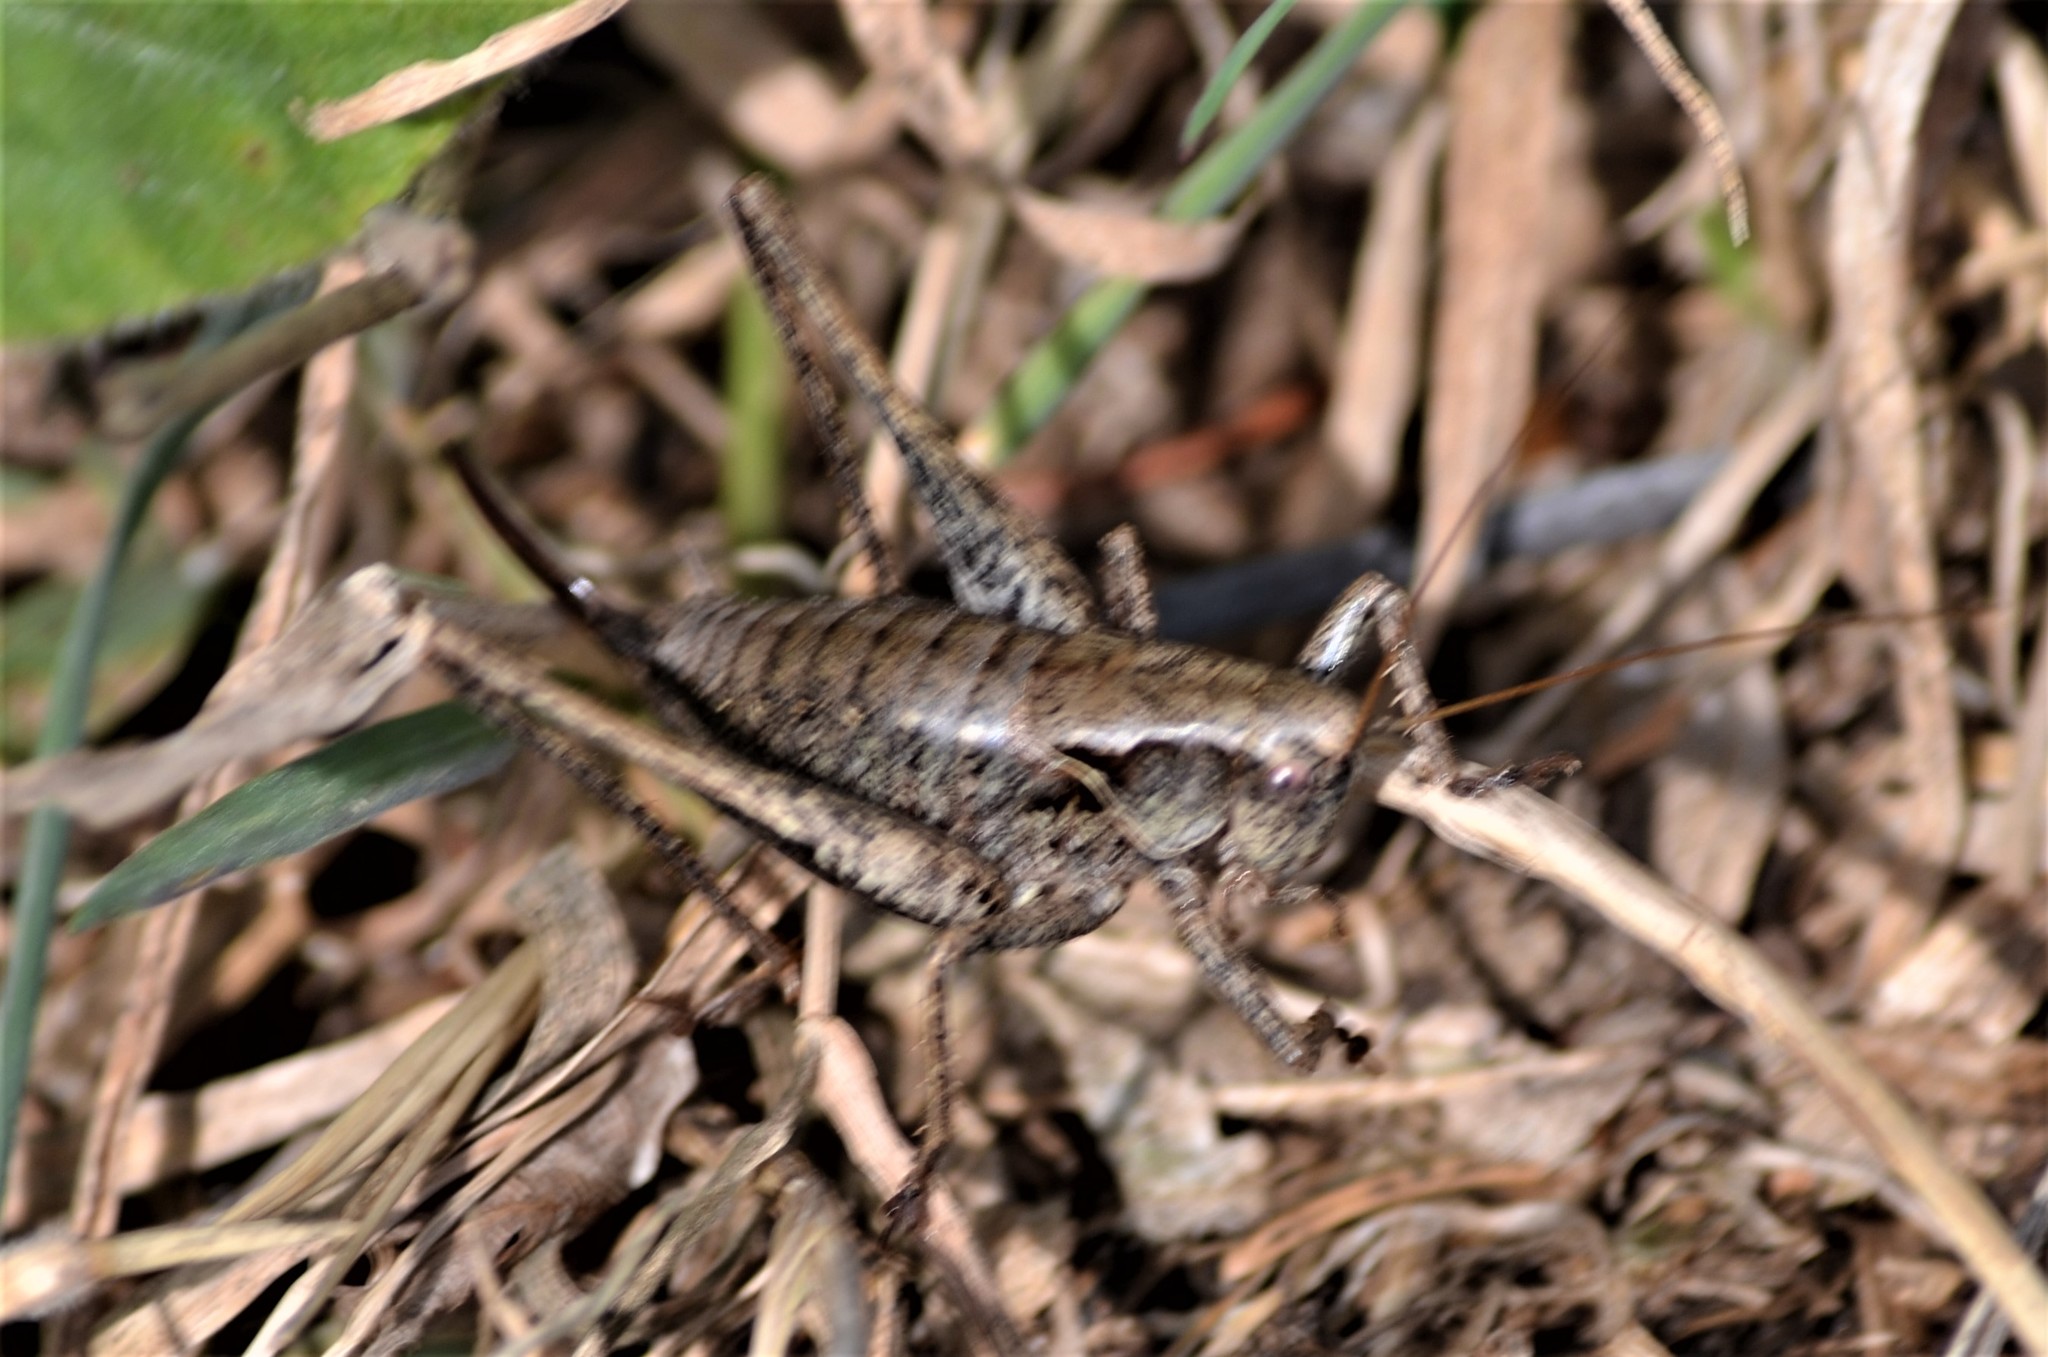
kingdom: Animalia
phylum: Arthropoda
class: Insecta
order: Orthoptera
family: Tettigoniidae
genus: Pholidoptera
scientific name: Pholidoptera griseoaptera
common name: Dark bush-cricket
